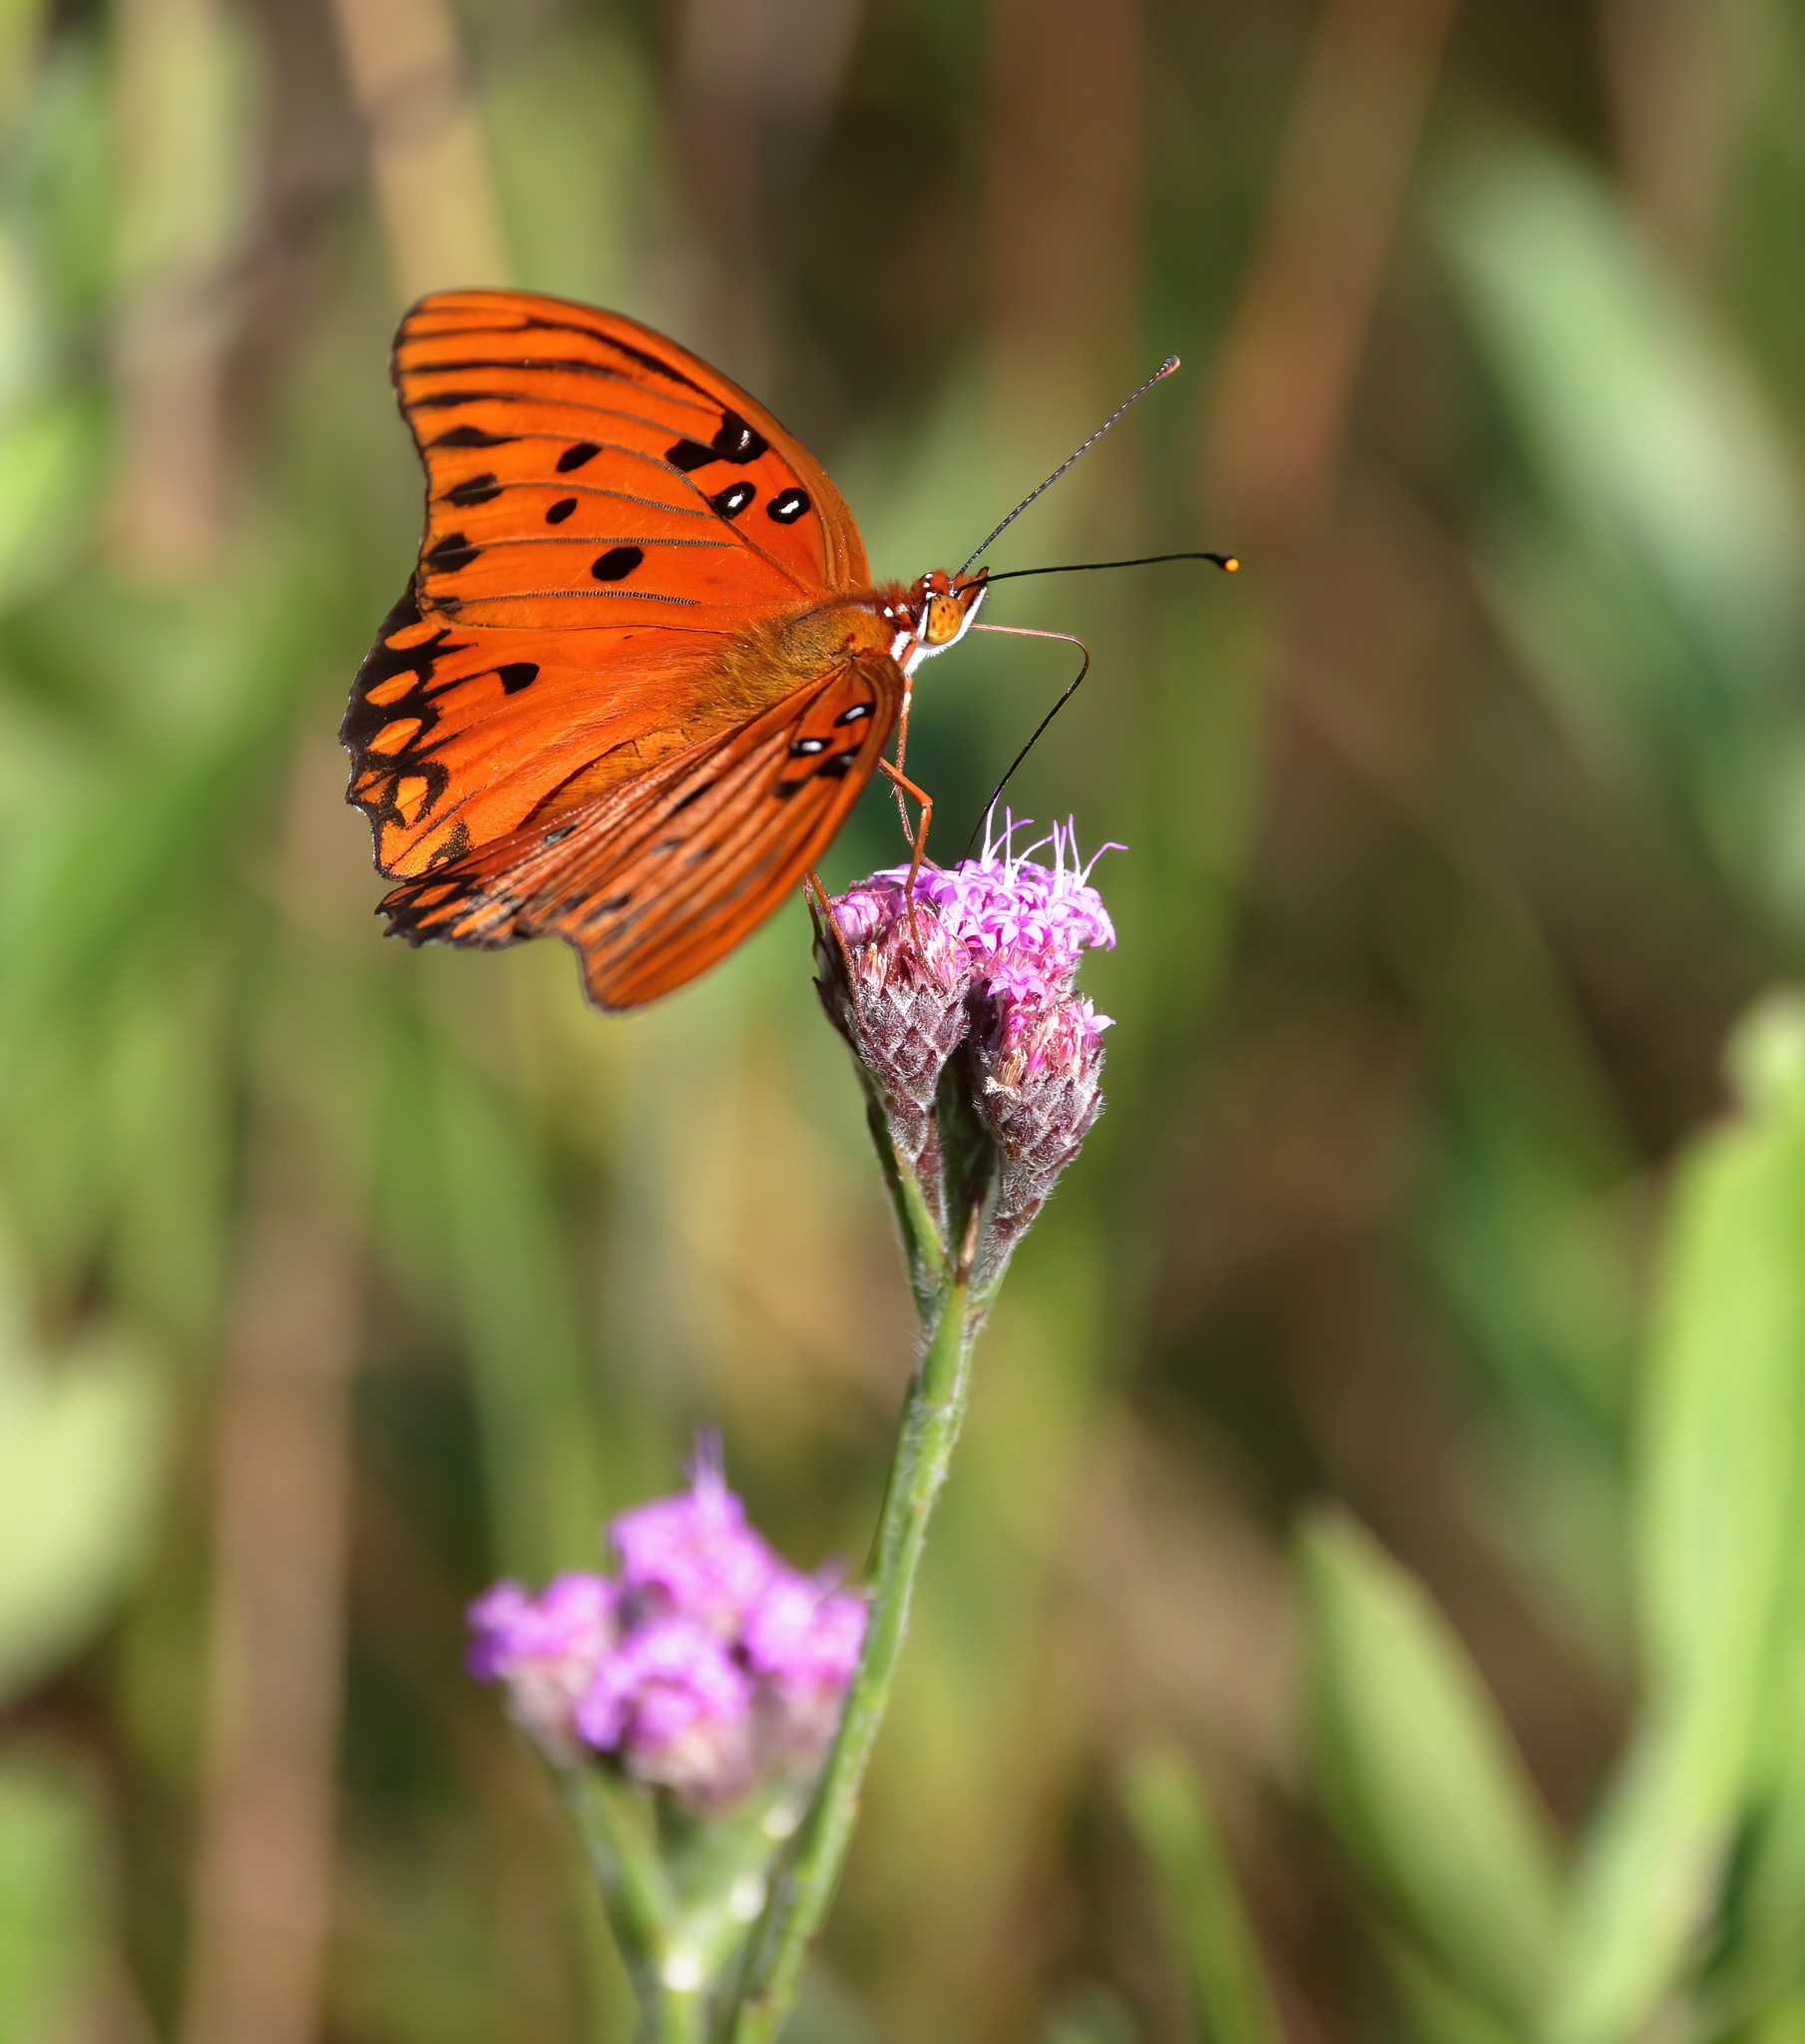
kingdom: Animalia
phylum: Arthropoda
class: Insecta
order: Lepidoptera
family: Nymphalidae
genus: Dione
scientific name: Dione vanillae
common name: Gulf fritillary
